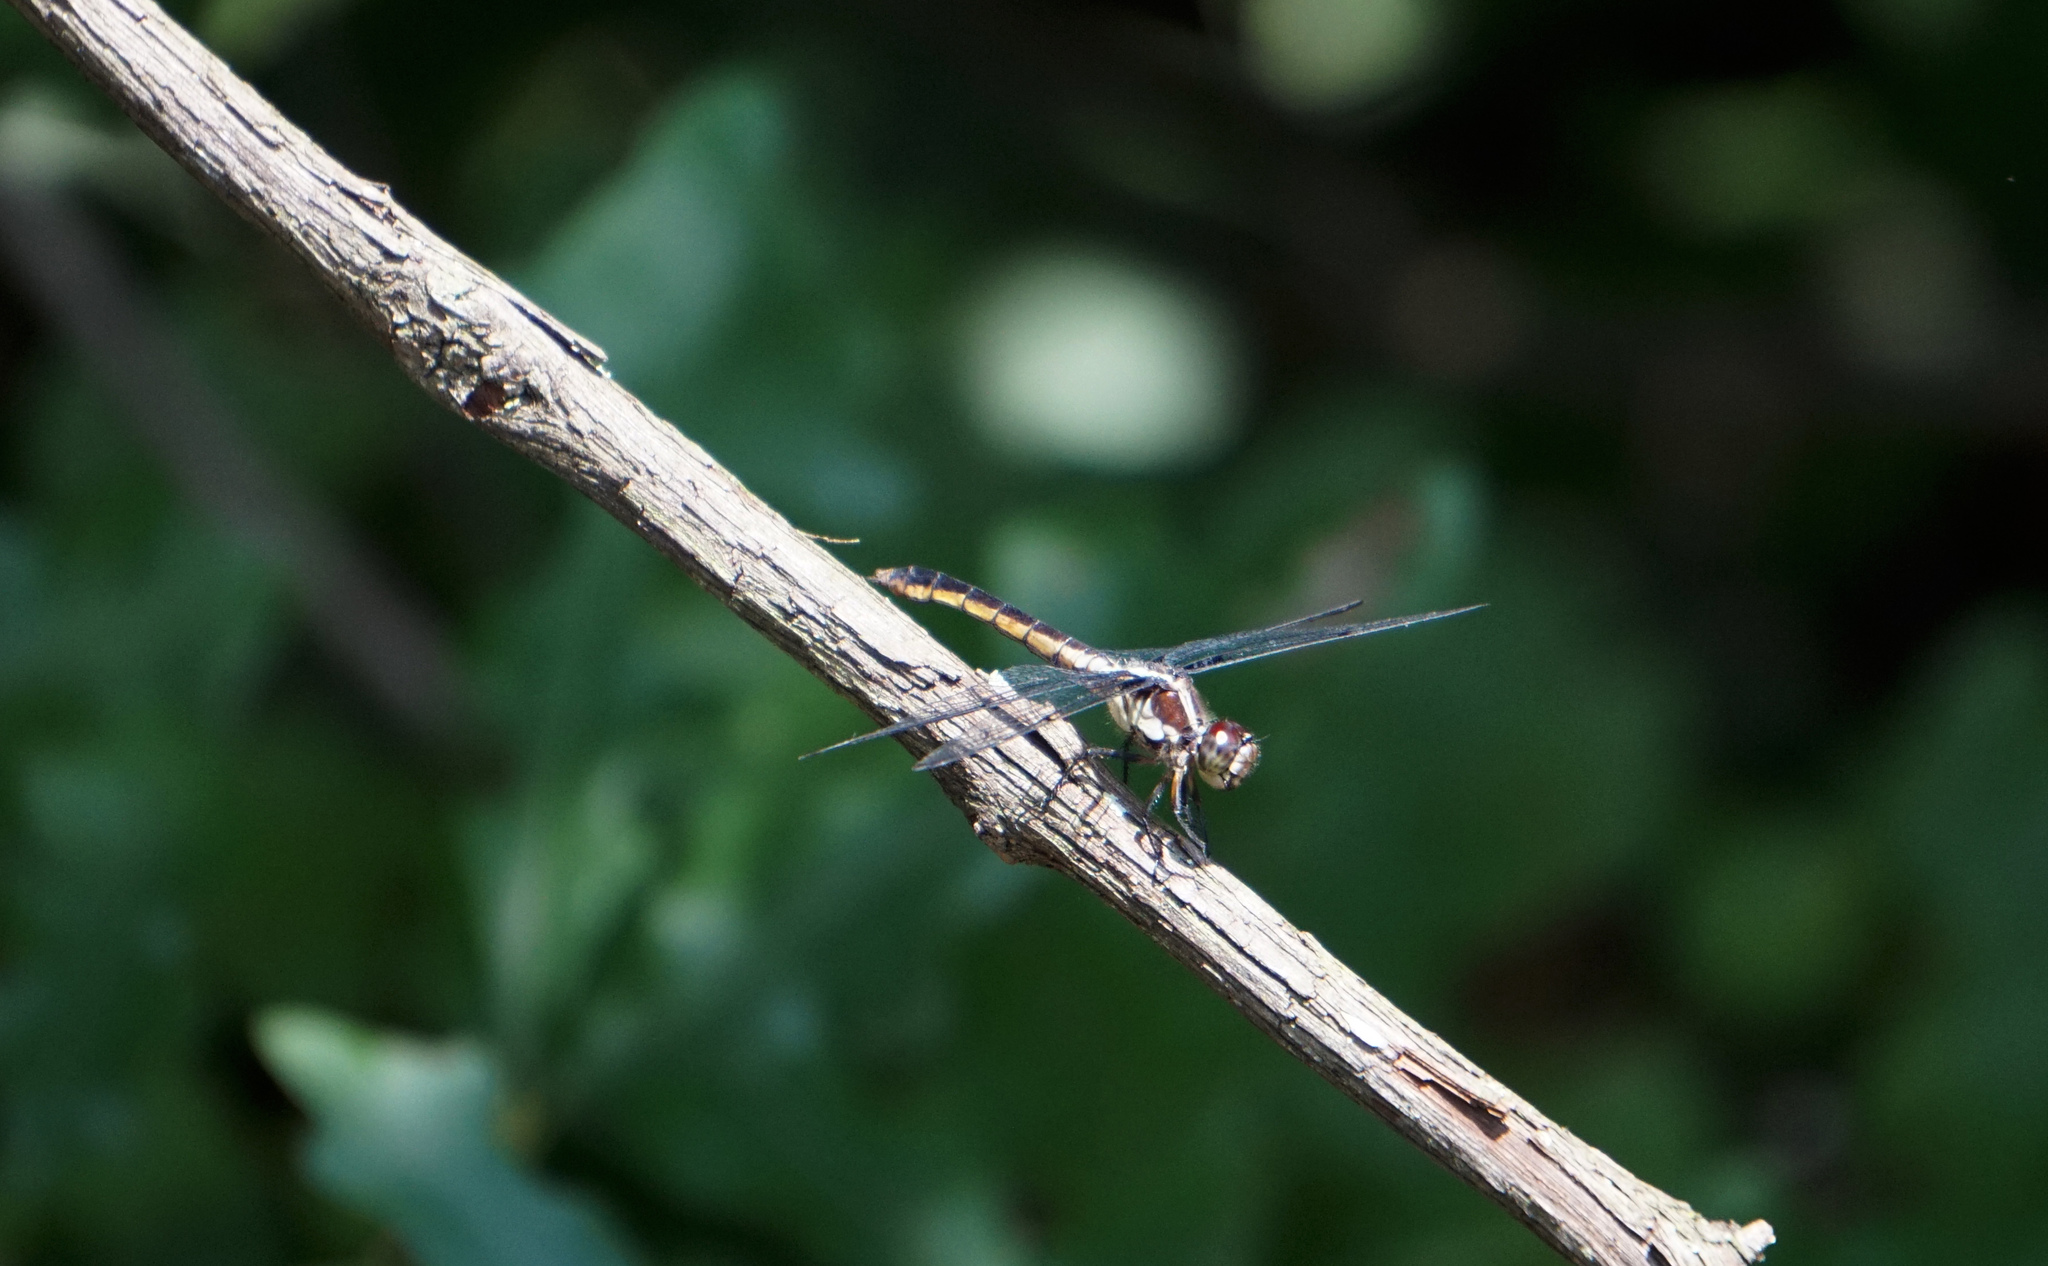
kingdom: Animalia
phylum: Arthropoda
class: Insecta
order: Odonata
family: Libellulidae
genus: Libellula
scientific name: Libellula incesta
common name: Slaty skimmer
